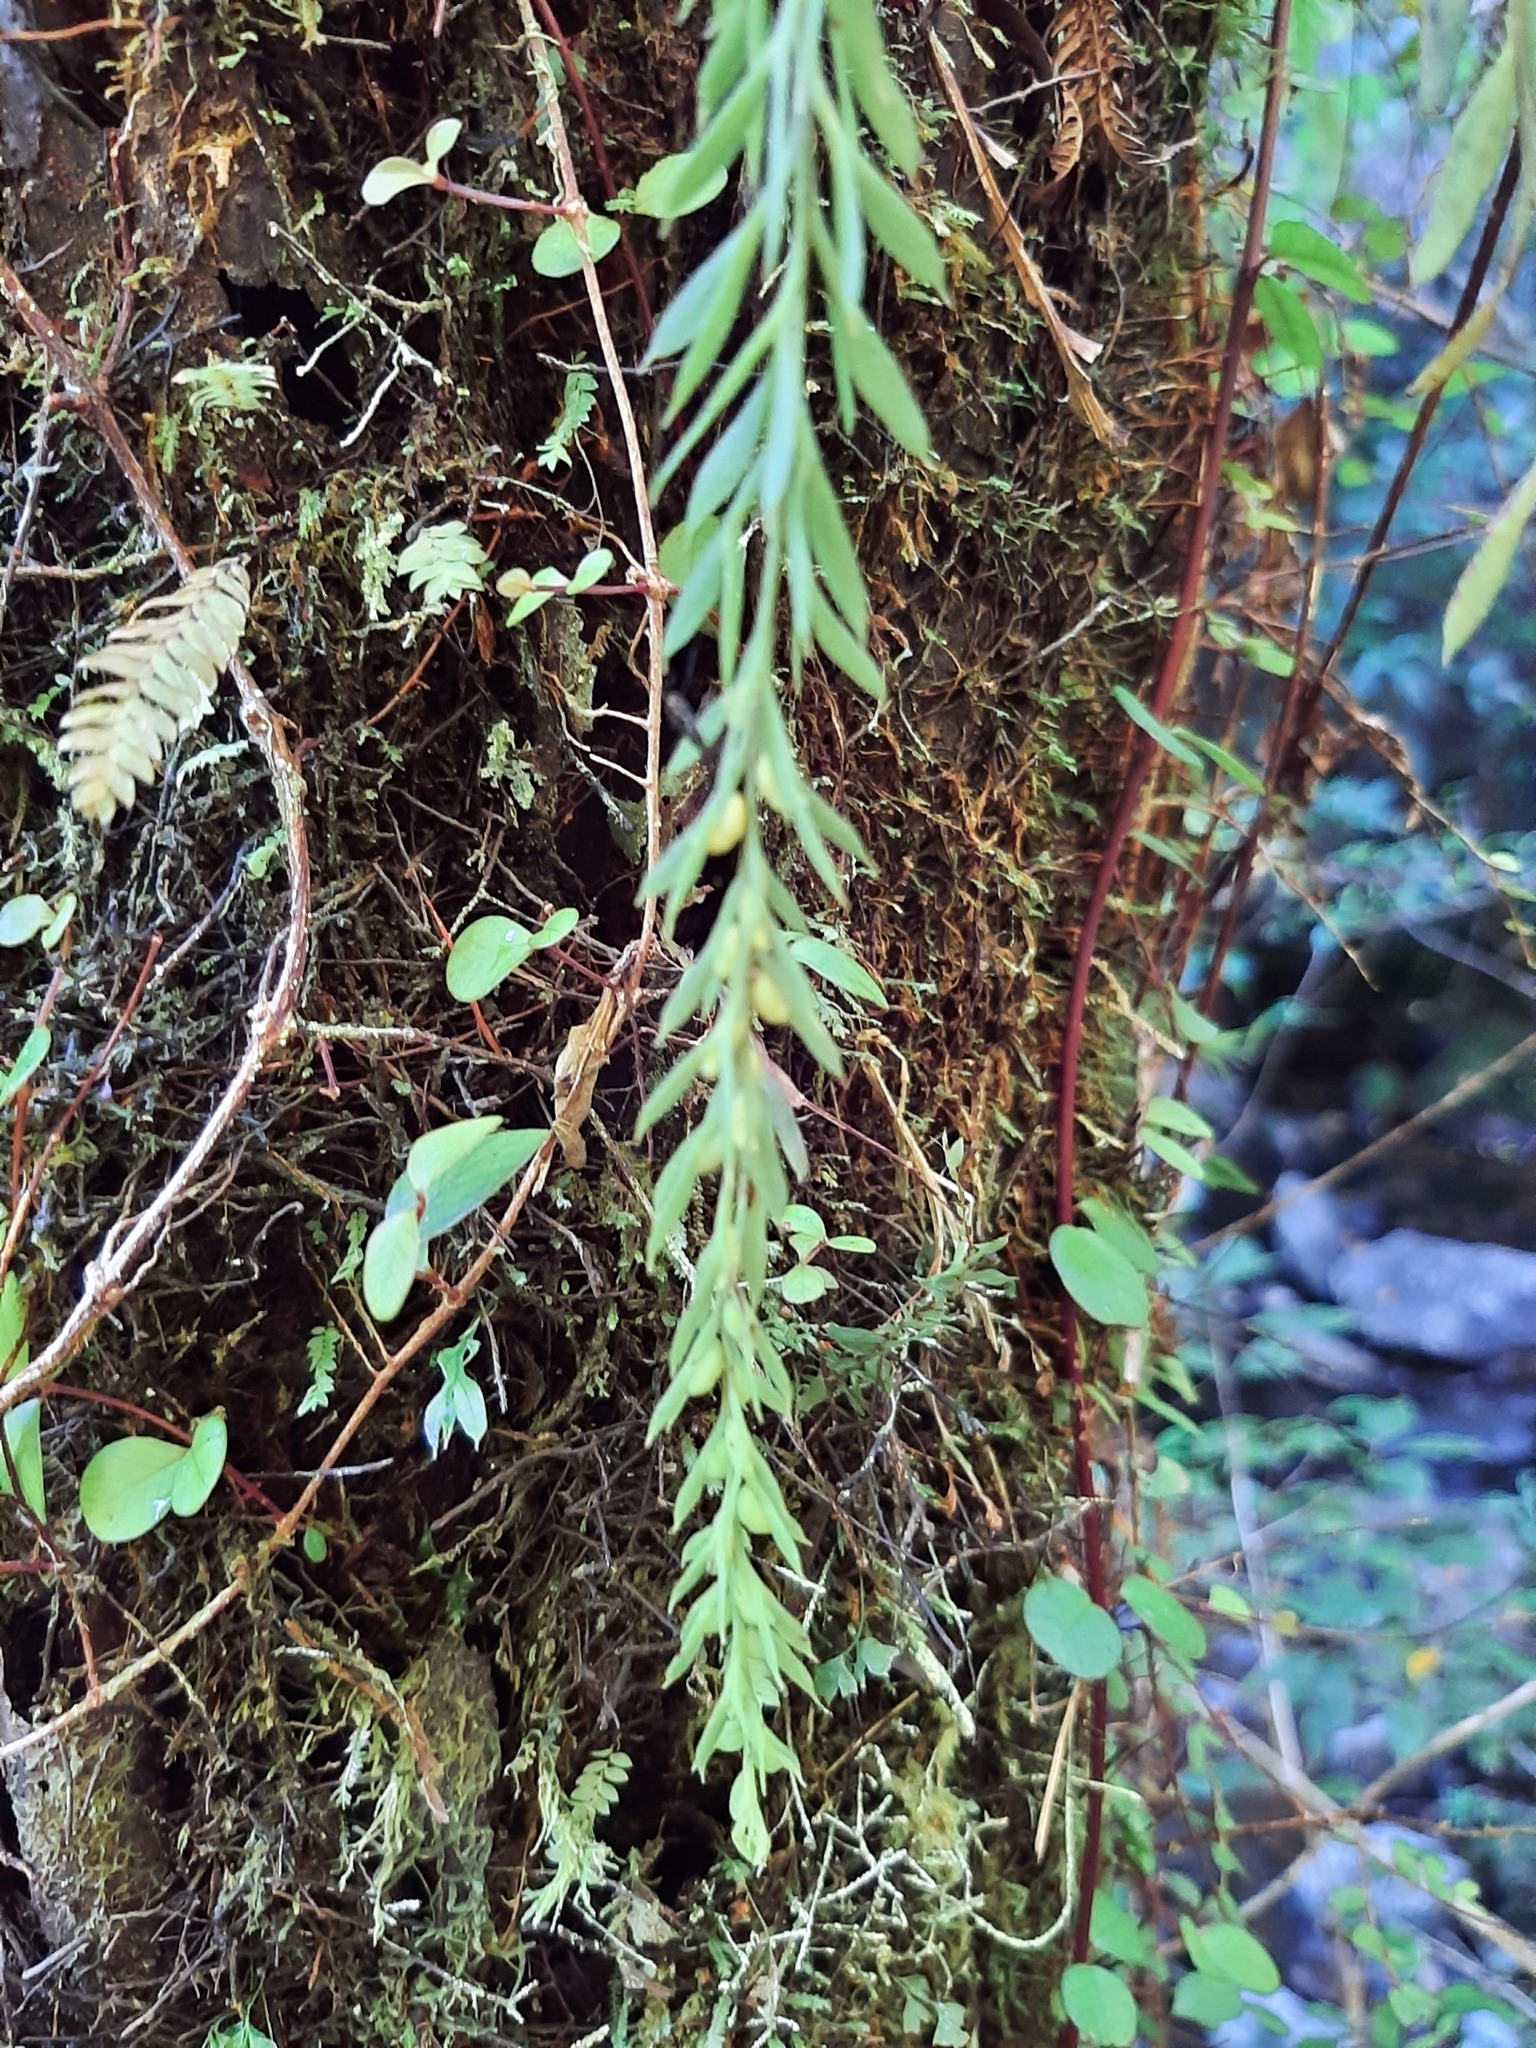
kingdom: Plantae
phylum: Tracheophyta
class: Polypodiopsida
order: Psilotales
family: Psilotaceae
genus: Tmesipteris
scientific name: Tmesipteris elongata
